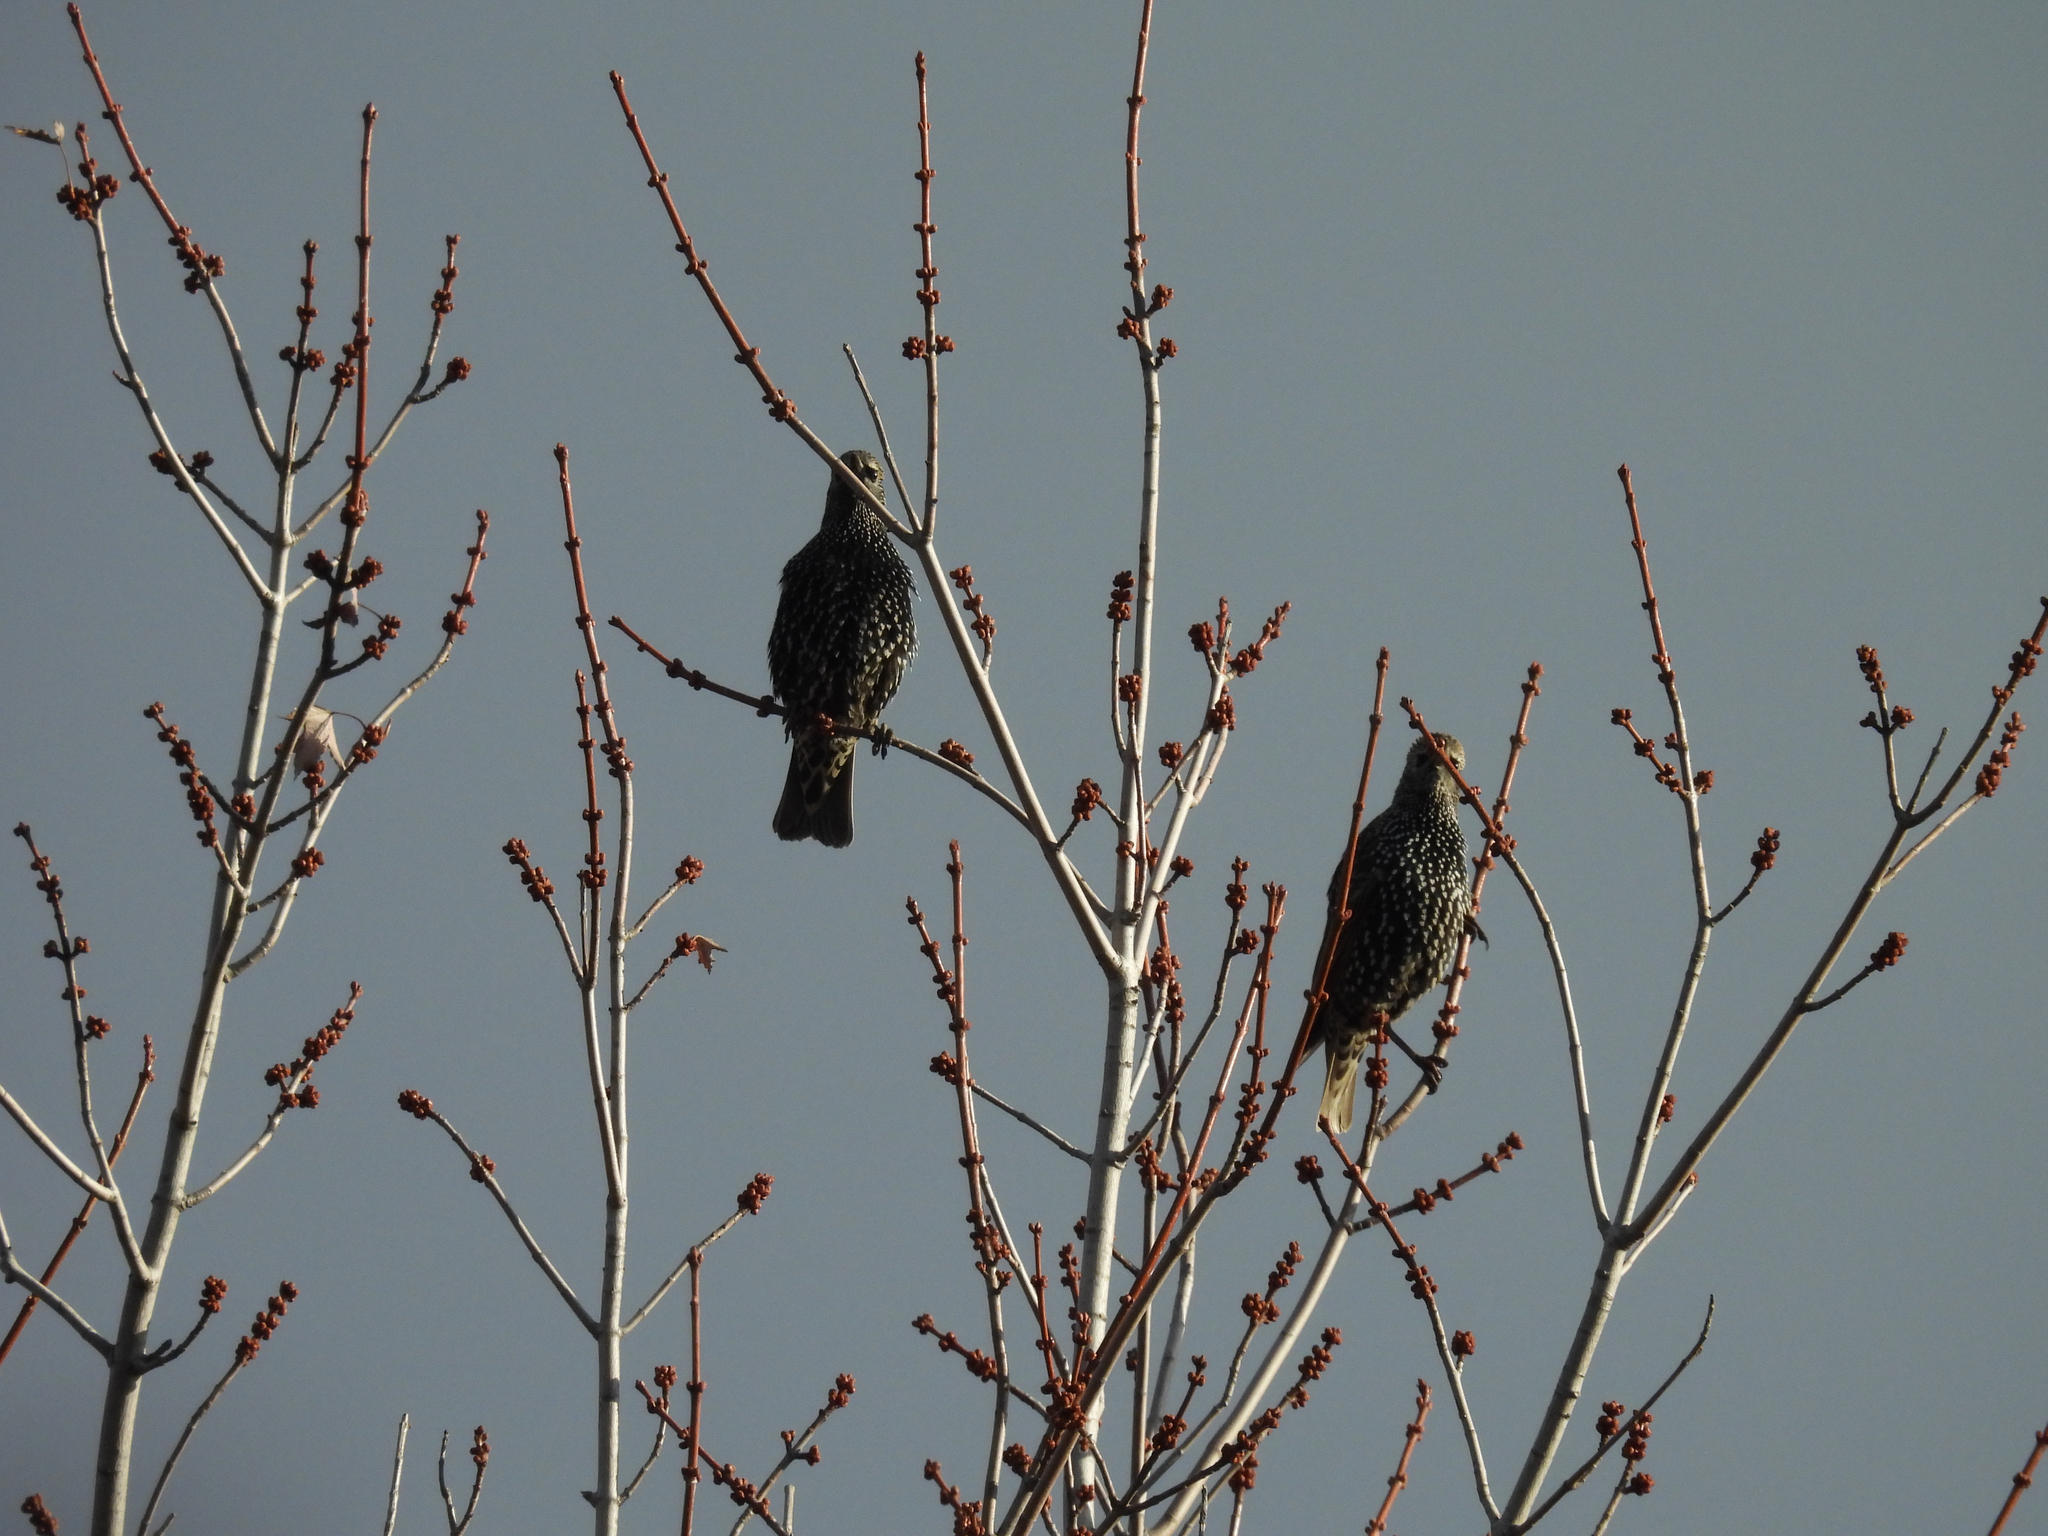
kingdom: Animalia
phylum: Chordata
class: Aves
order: Passeriformes
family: Sturnidae
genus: Sturnus
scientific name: Sturnus vulgaris
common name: Common starling
